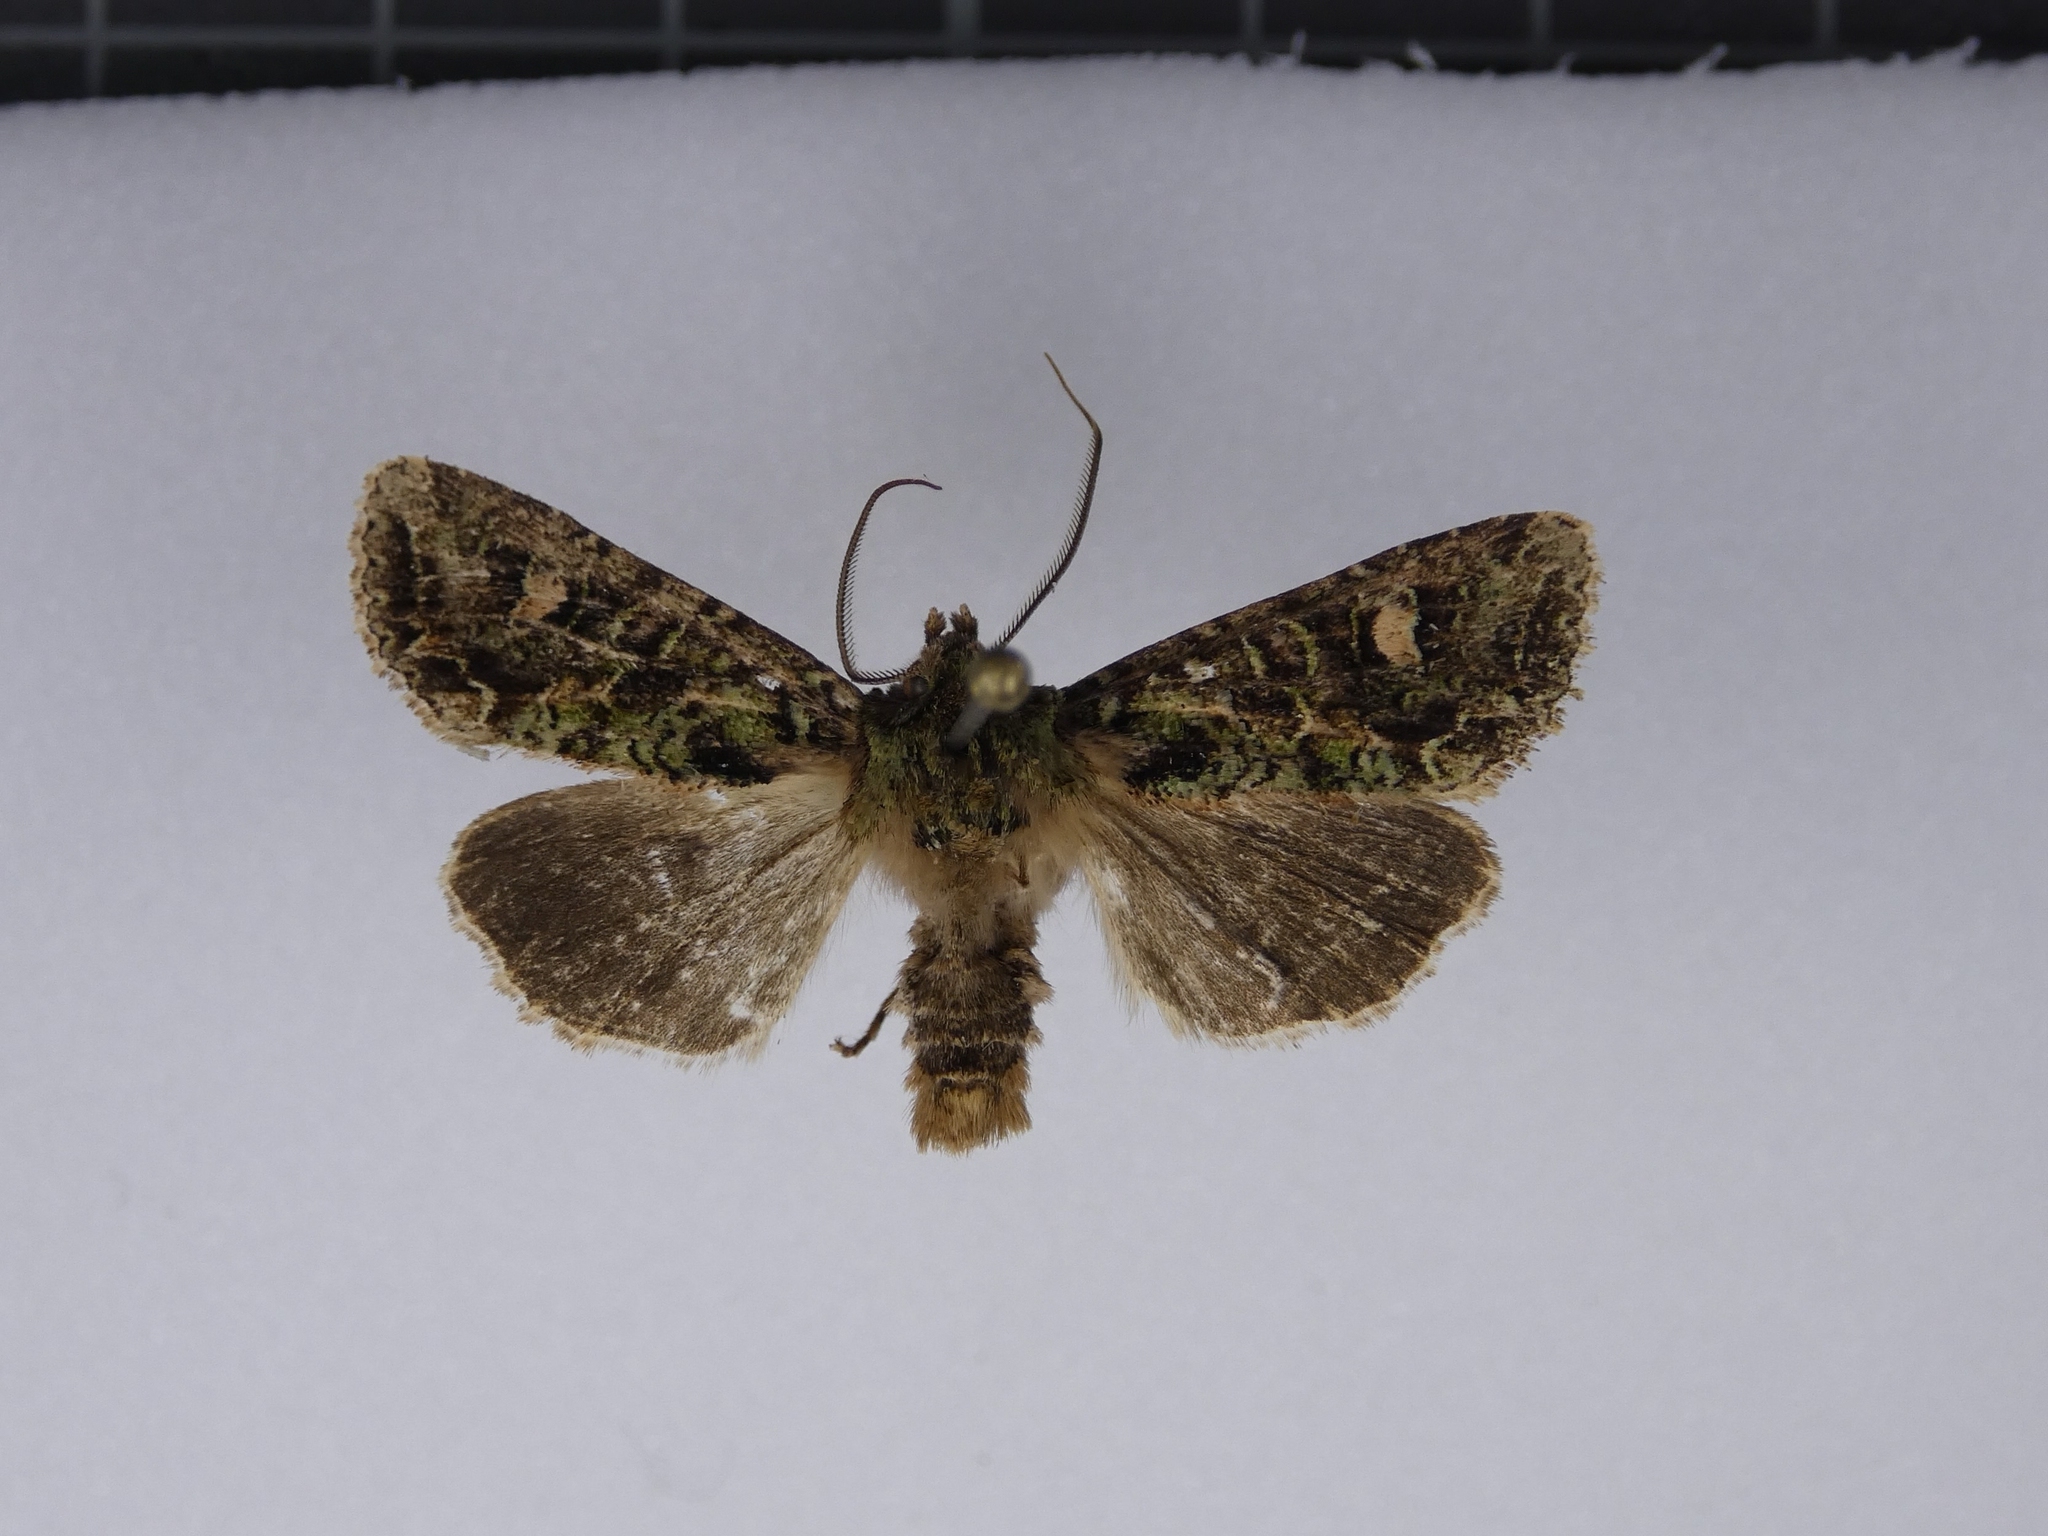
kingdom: Animalia
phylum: Arthropoda
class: Insecta
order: Lepidoptera
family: Noctuidae
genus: Ichneutica
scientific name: Ichneutica
